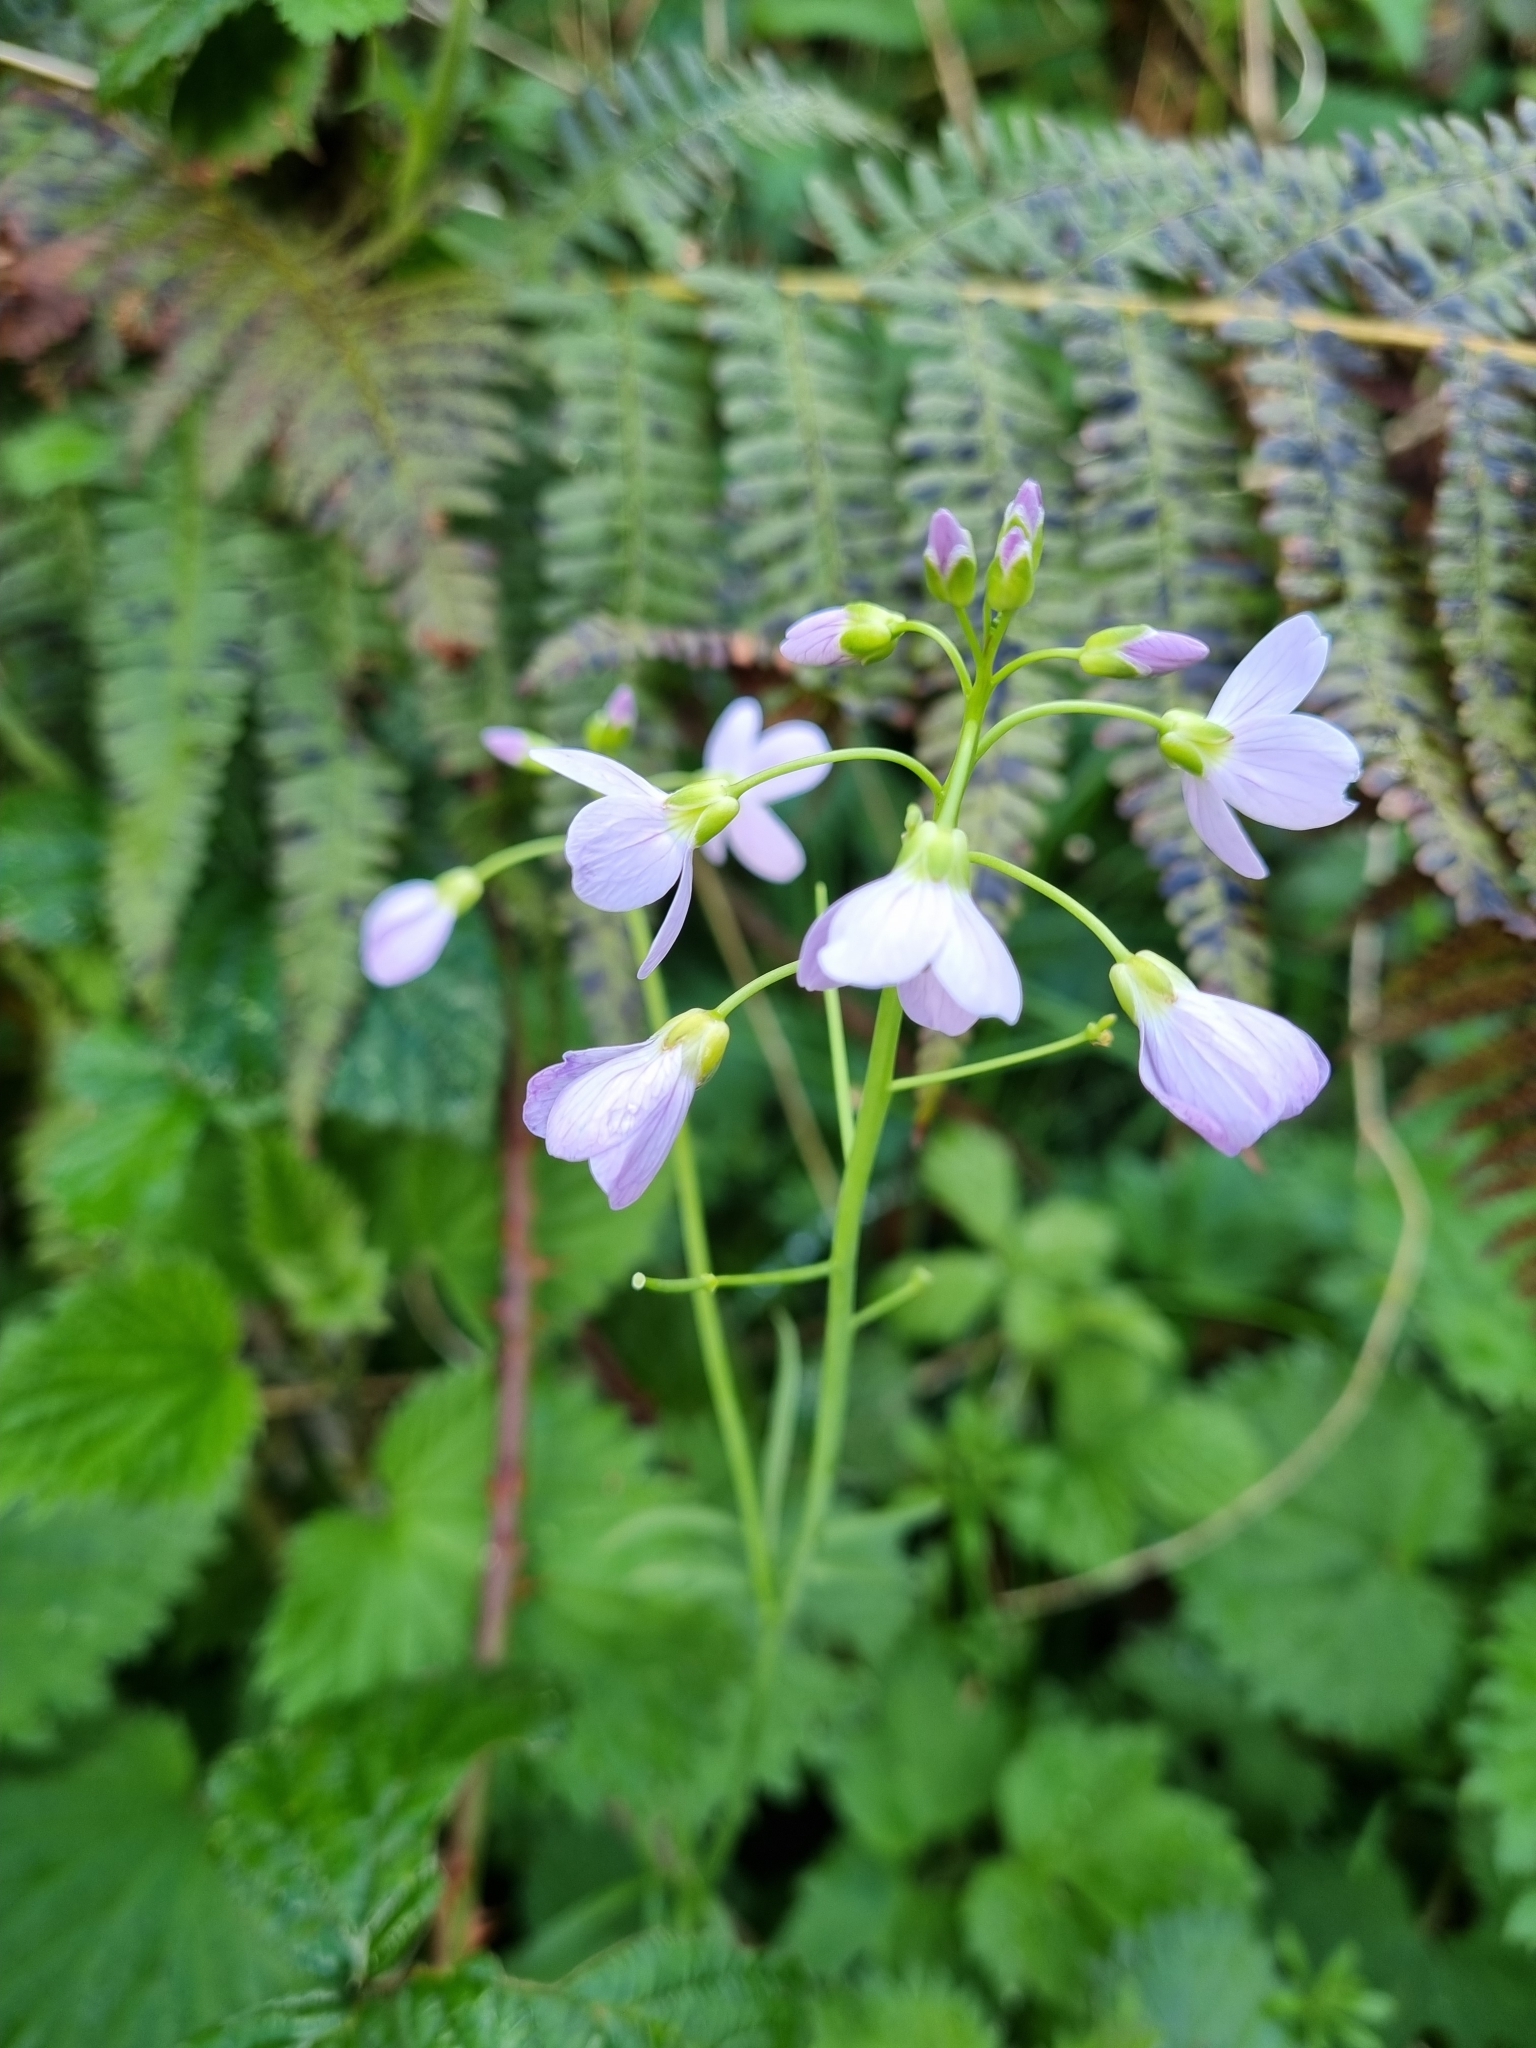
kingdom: Plantae
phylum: Tracheophyta
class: Magnoliopsida
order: Brassicales
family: Brassicaceae
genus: Cardamine
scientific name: Cardamine pratensis
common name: Cuckoo flower
